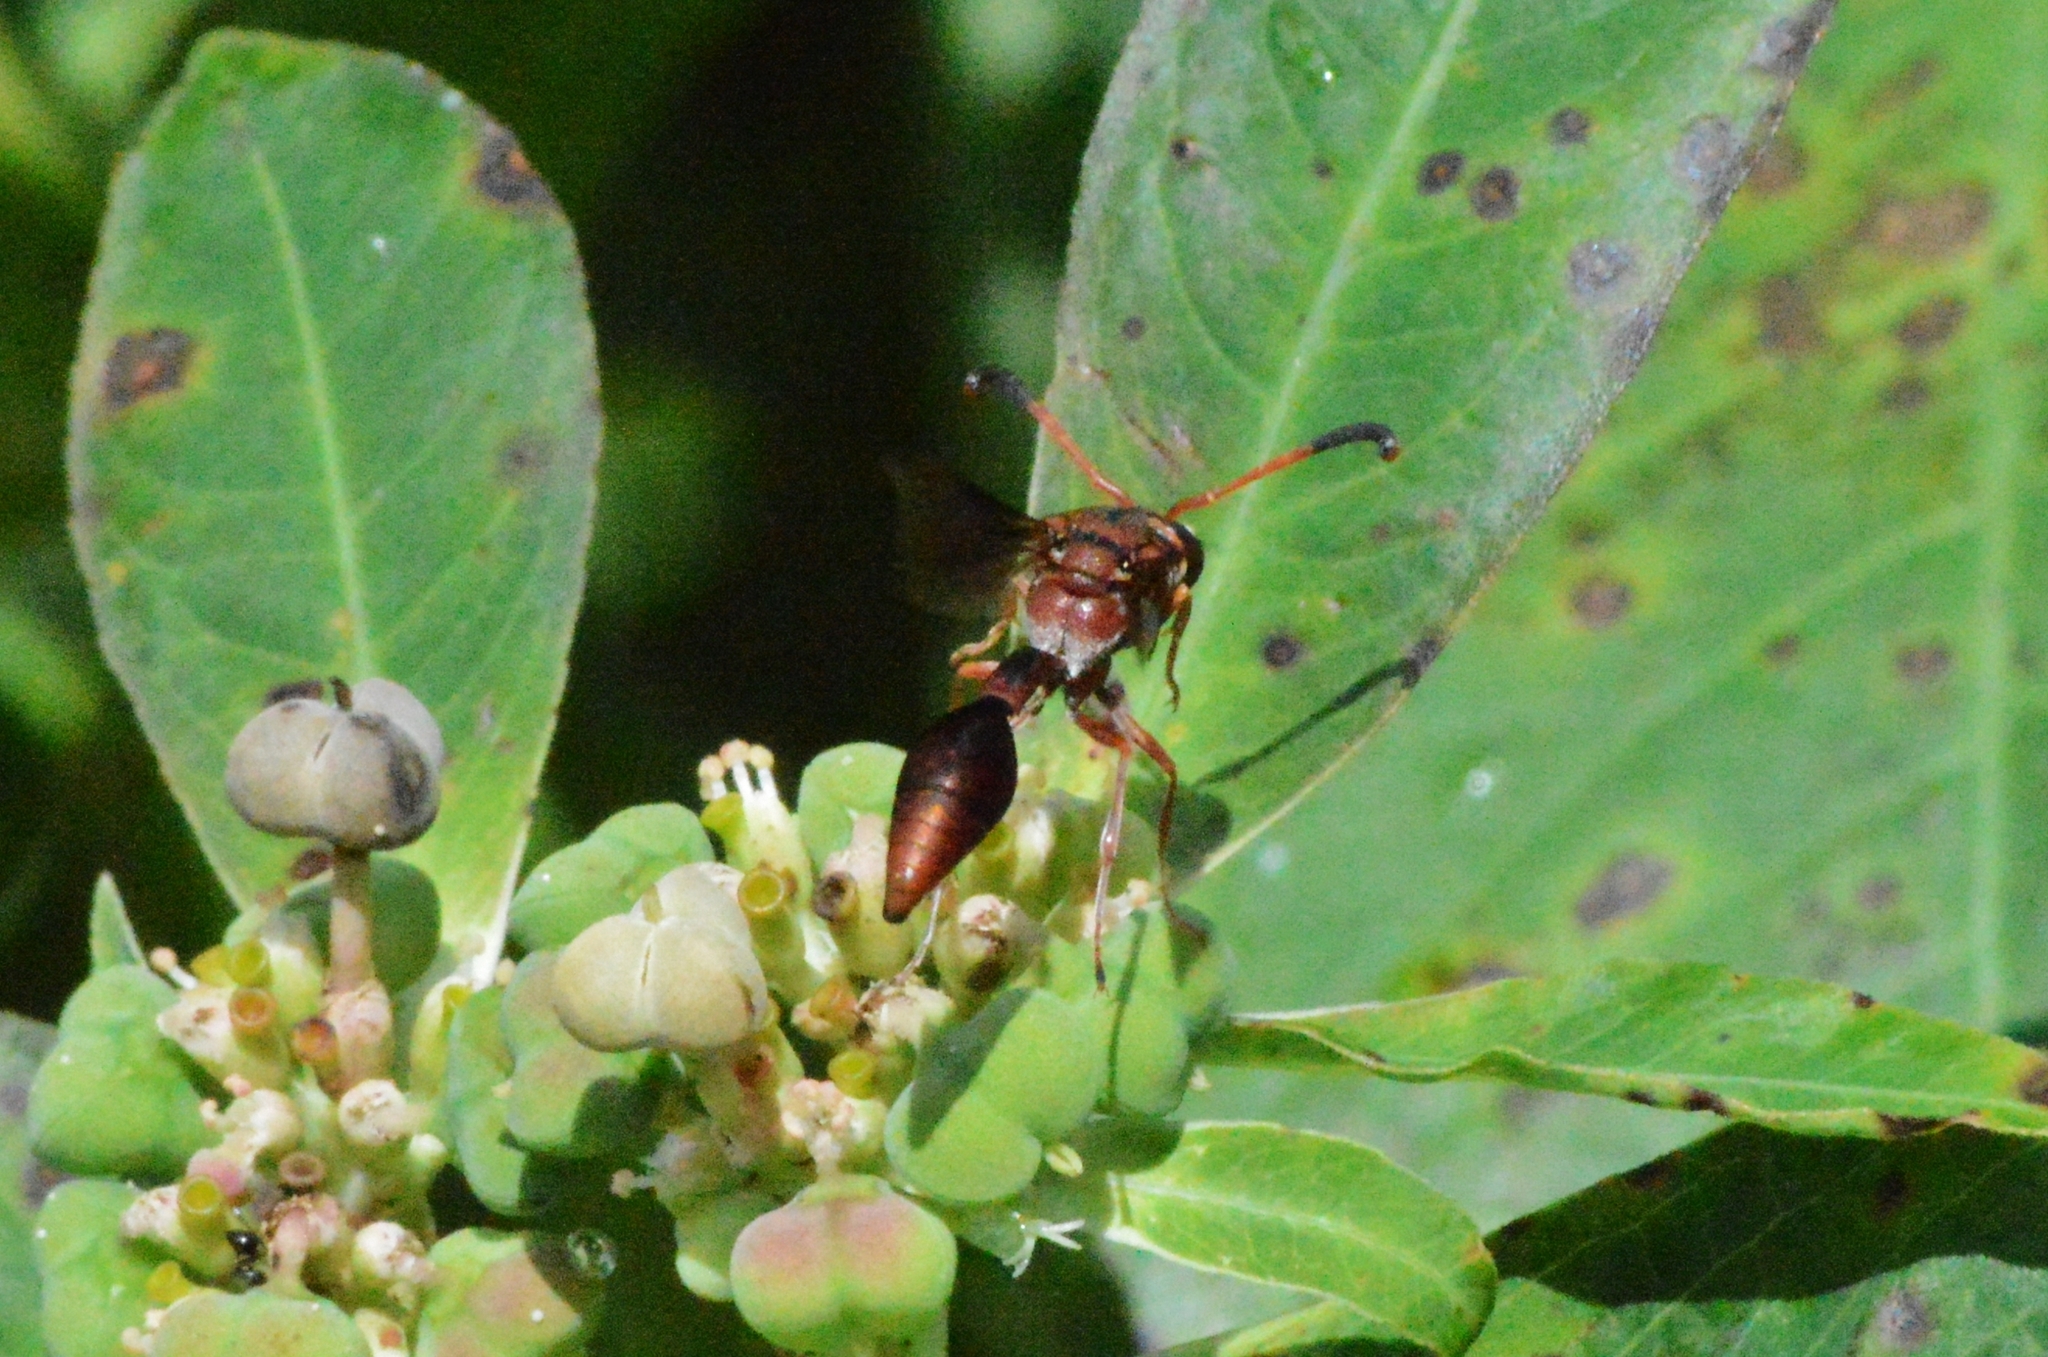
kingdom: Animalia
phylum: Arthropoda
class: Insecta
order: Hymenoptera
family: Eumenidae
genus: Zeta
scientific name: Zeta argillaceum
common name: Potter wasp
